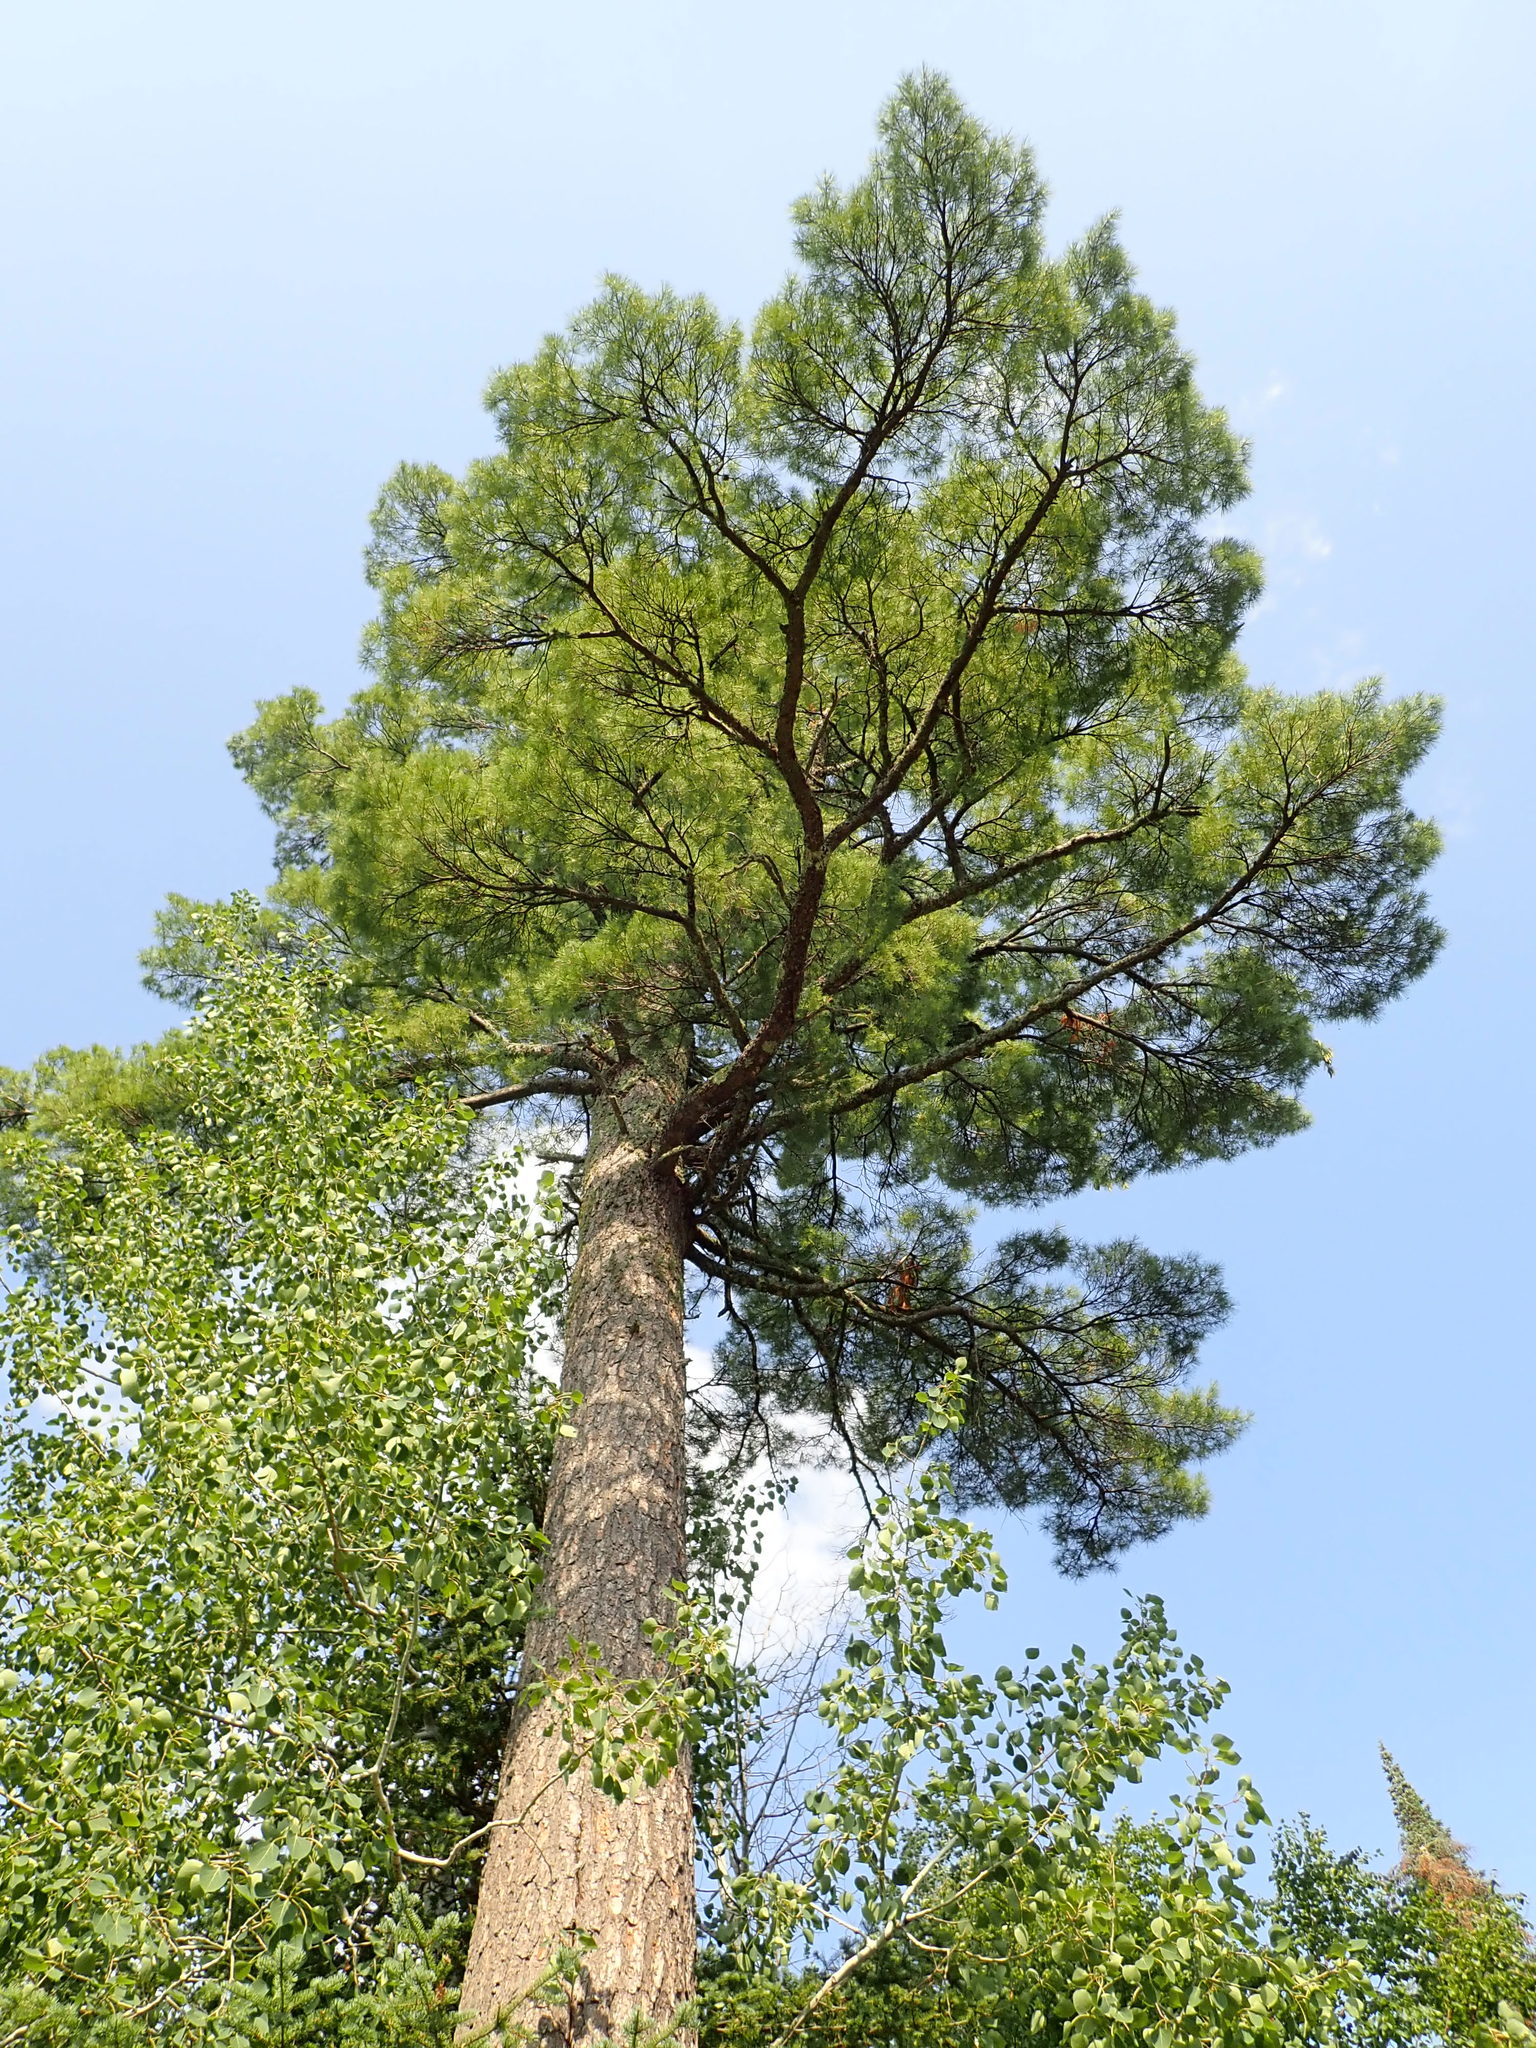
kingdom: Plantae
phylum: Tracheophyta
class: Pinopsida
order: Pinales
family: Pinaceae
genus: Pinus
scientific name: Pinus strobus
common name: Weymouth pine
